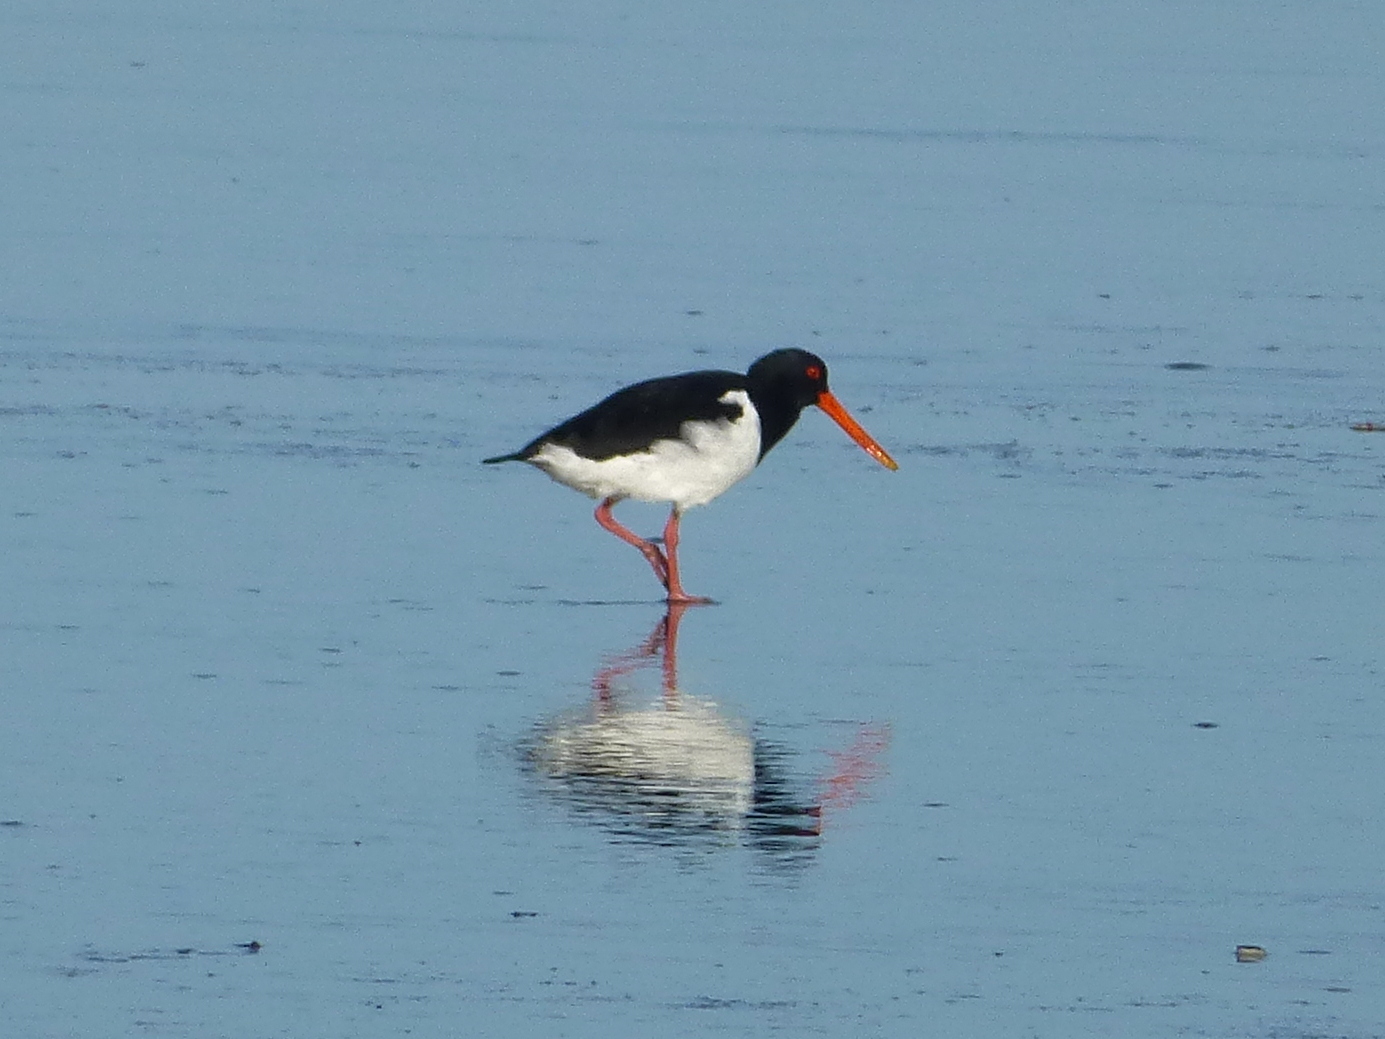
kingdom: Animalia
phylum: Chordata
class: Aves
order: Charadriiformes
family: Haematopodidae
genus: Haematopus
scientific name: Haematopus finschi
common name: South island oystercatcher
